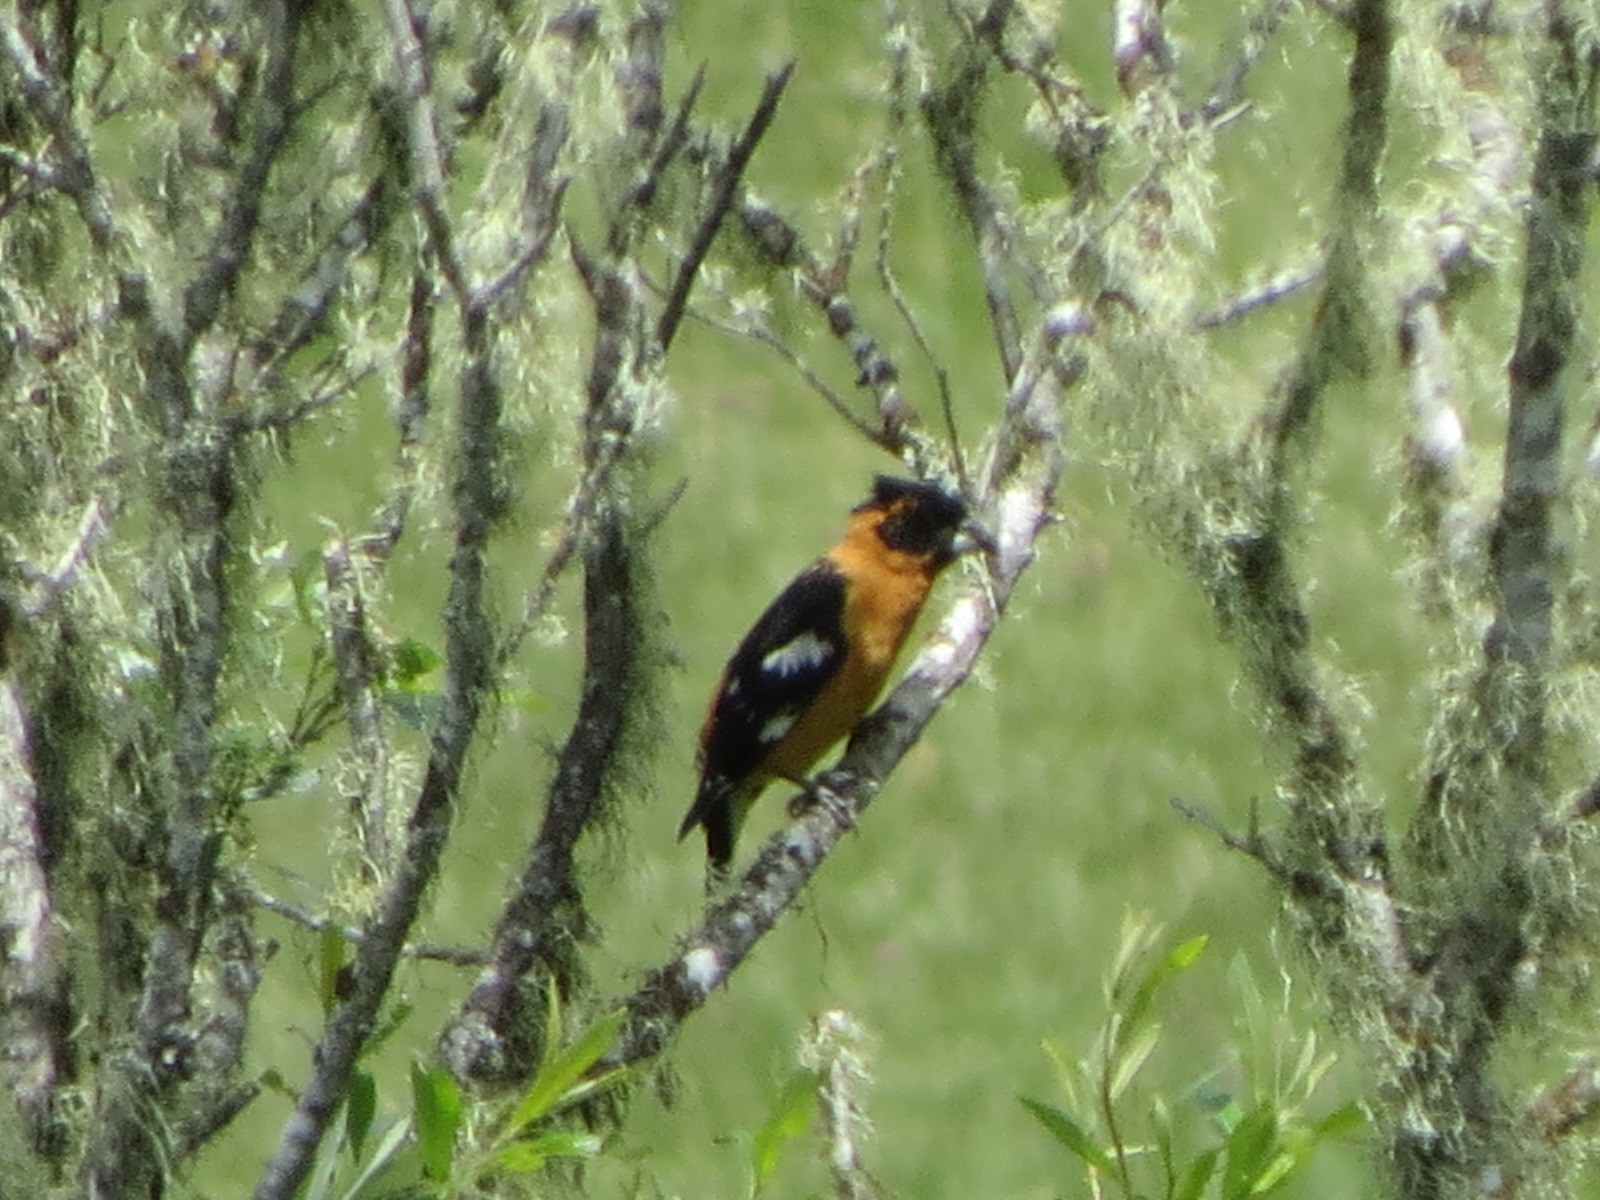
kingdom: Animalia
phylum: Chordata
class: Aves
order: Passeriformes
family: Cardinalidae
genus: Pheucticus
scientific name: Pheucticus melanocephalus
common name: Black-headed grosbeak
